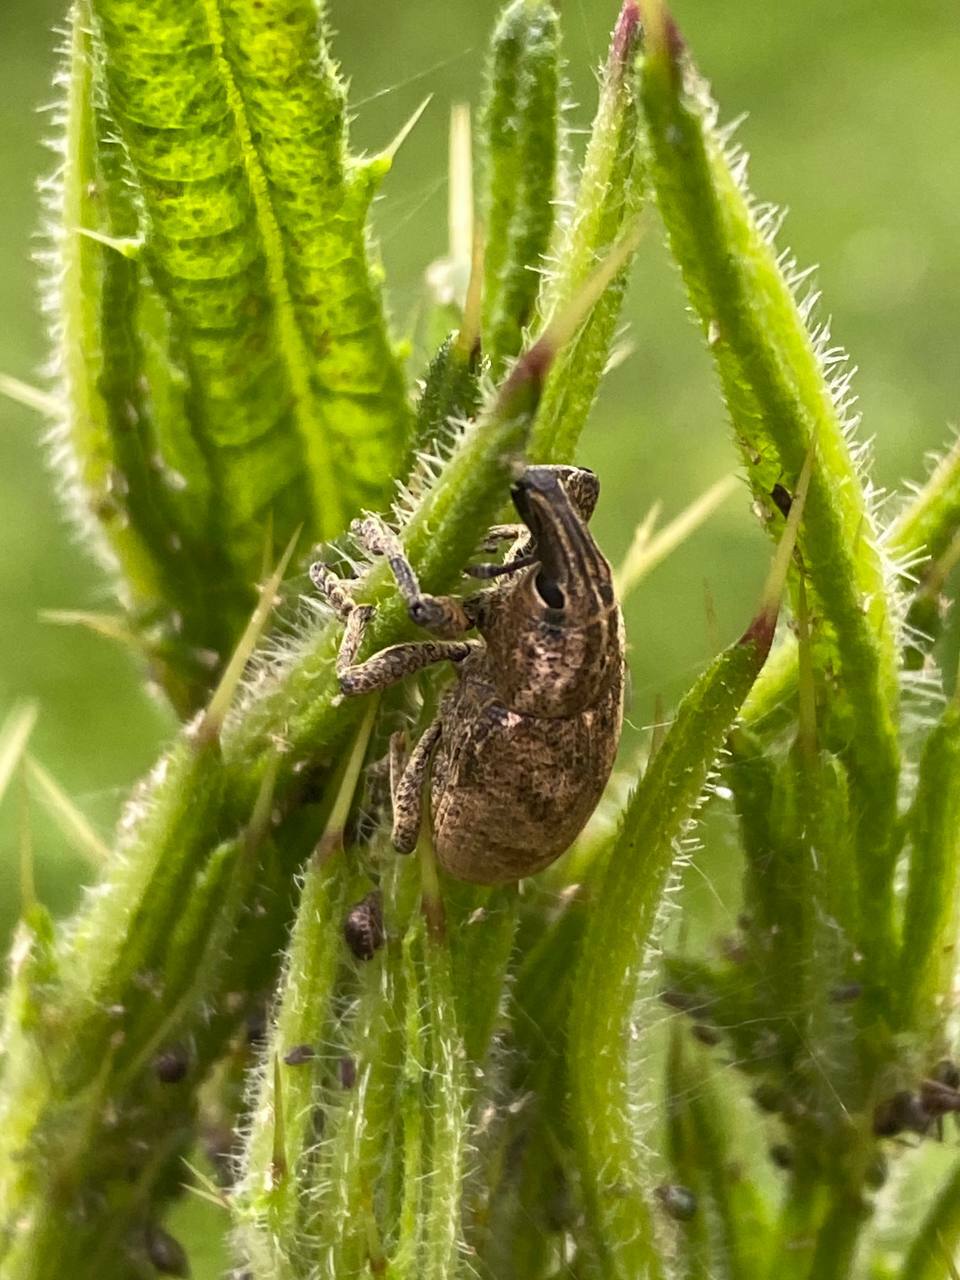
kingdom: Animalia
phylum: Arthropoda
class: Insecta
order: Coleoptera
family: Curculionidae
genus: Cleonis
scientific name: Cleonis pigra
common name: Large thistle weevil
